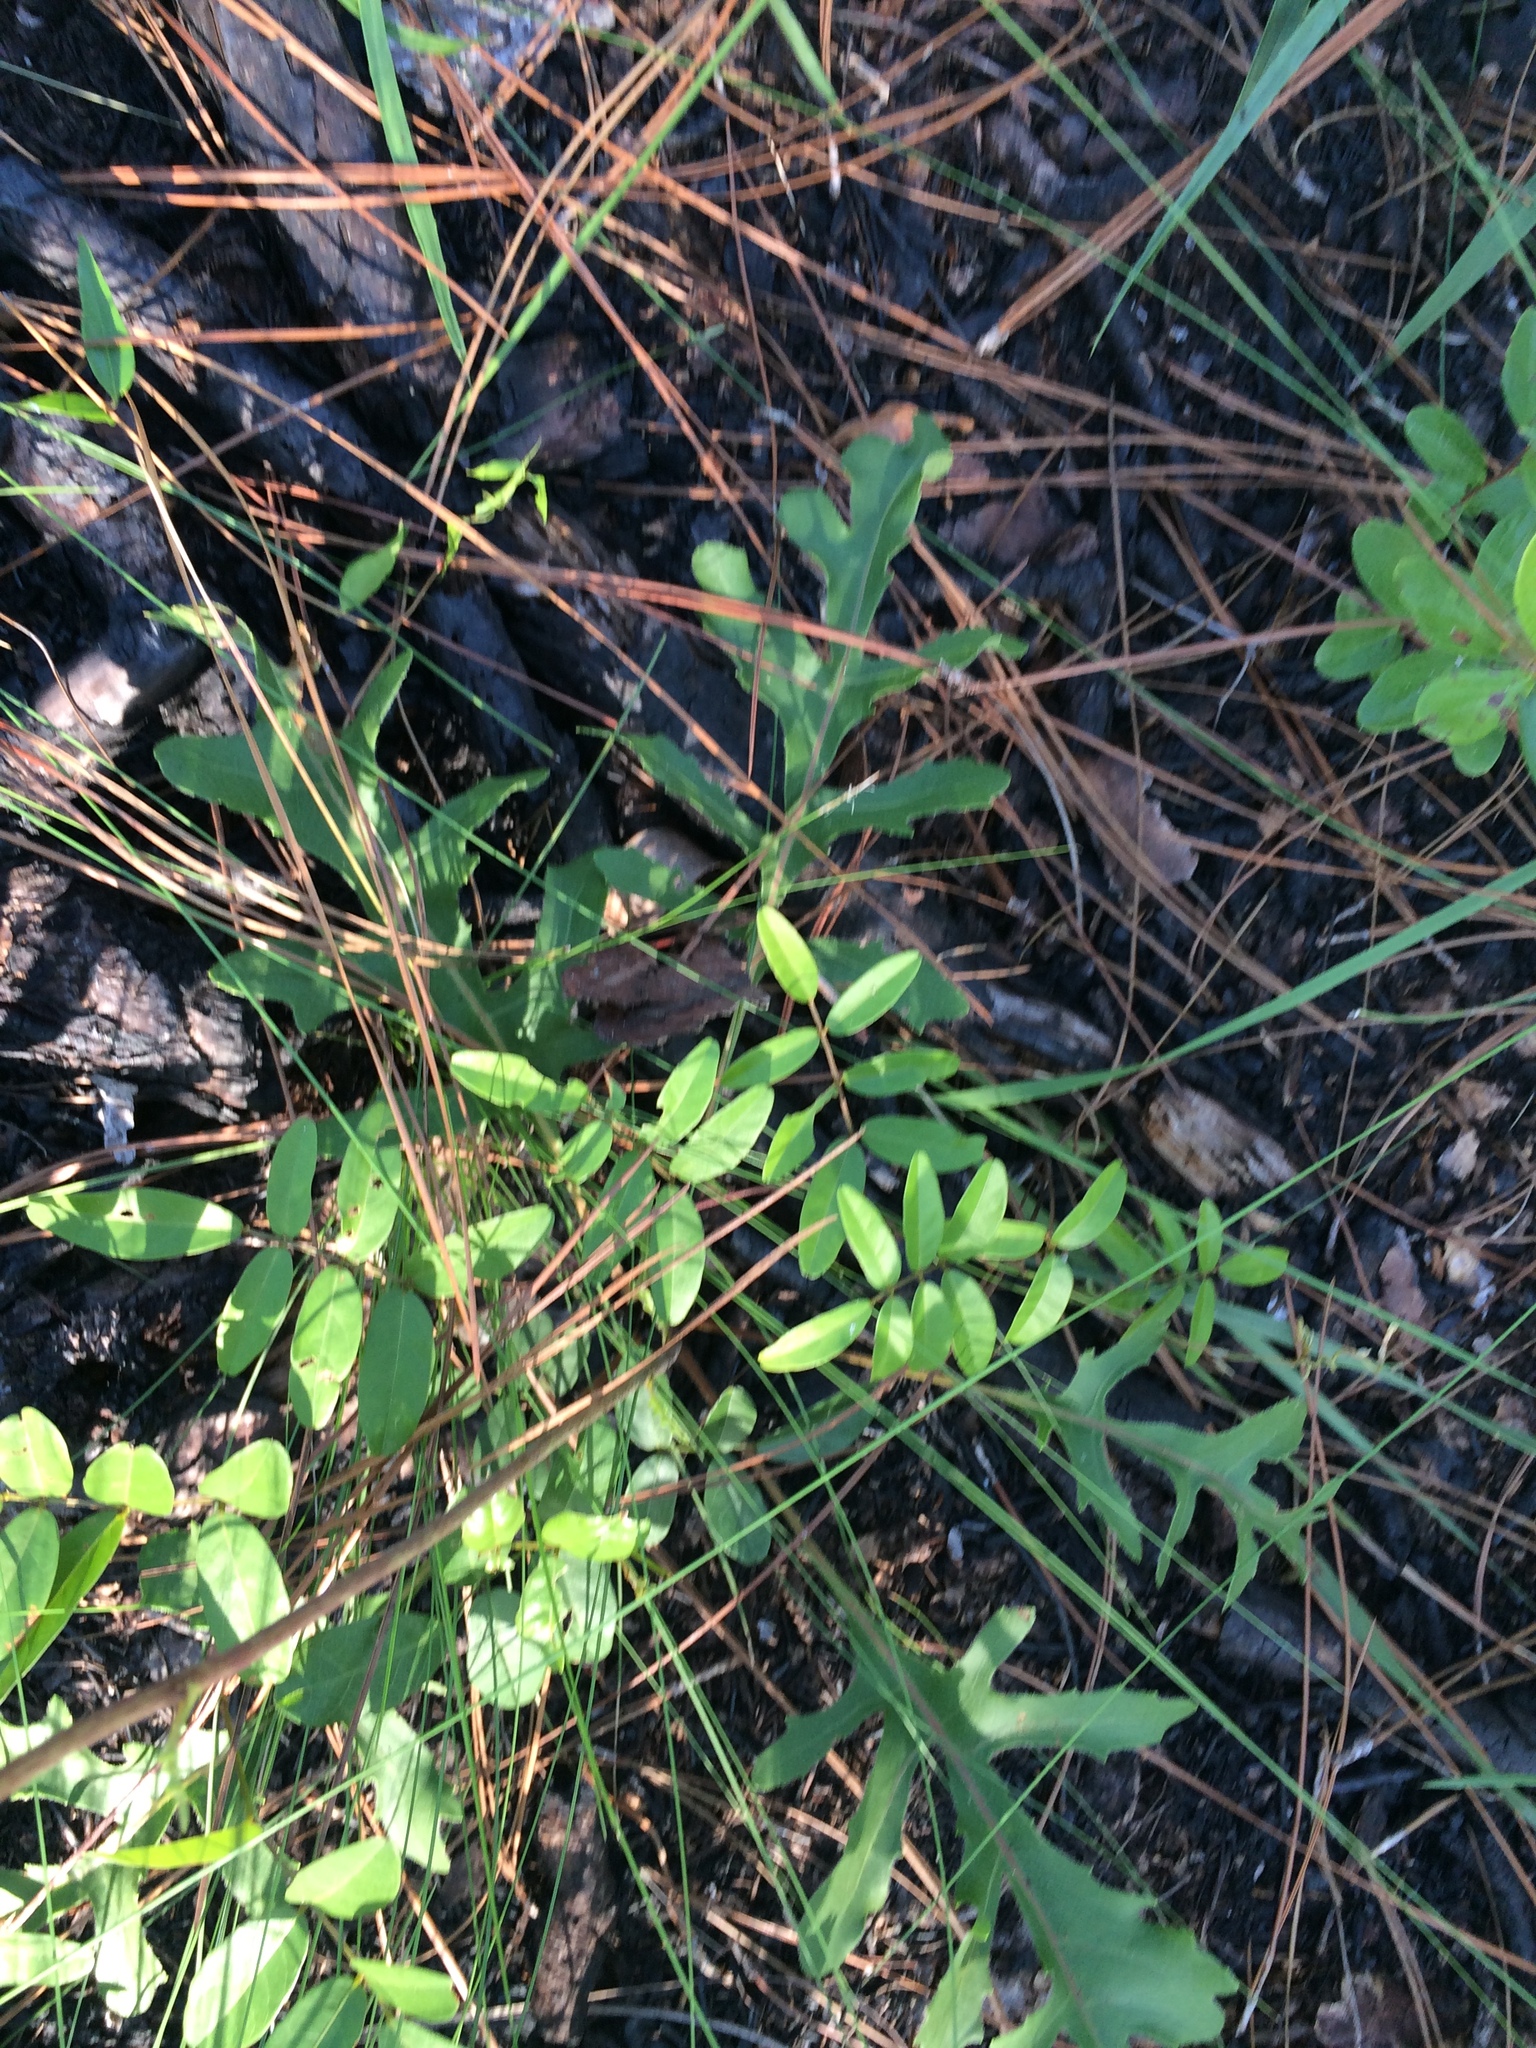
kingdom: Plantae
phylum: Tracheophyta
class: Magnoliopsida
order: Asterales
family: Asteraceae
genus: Silphium
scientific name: Silphium compositum
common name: Lesser basal-leaf rosinweed
